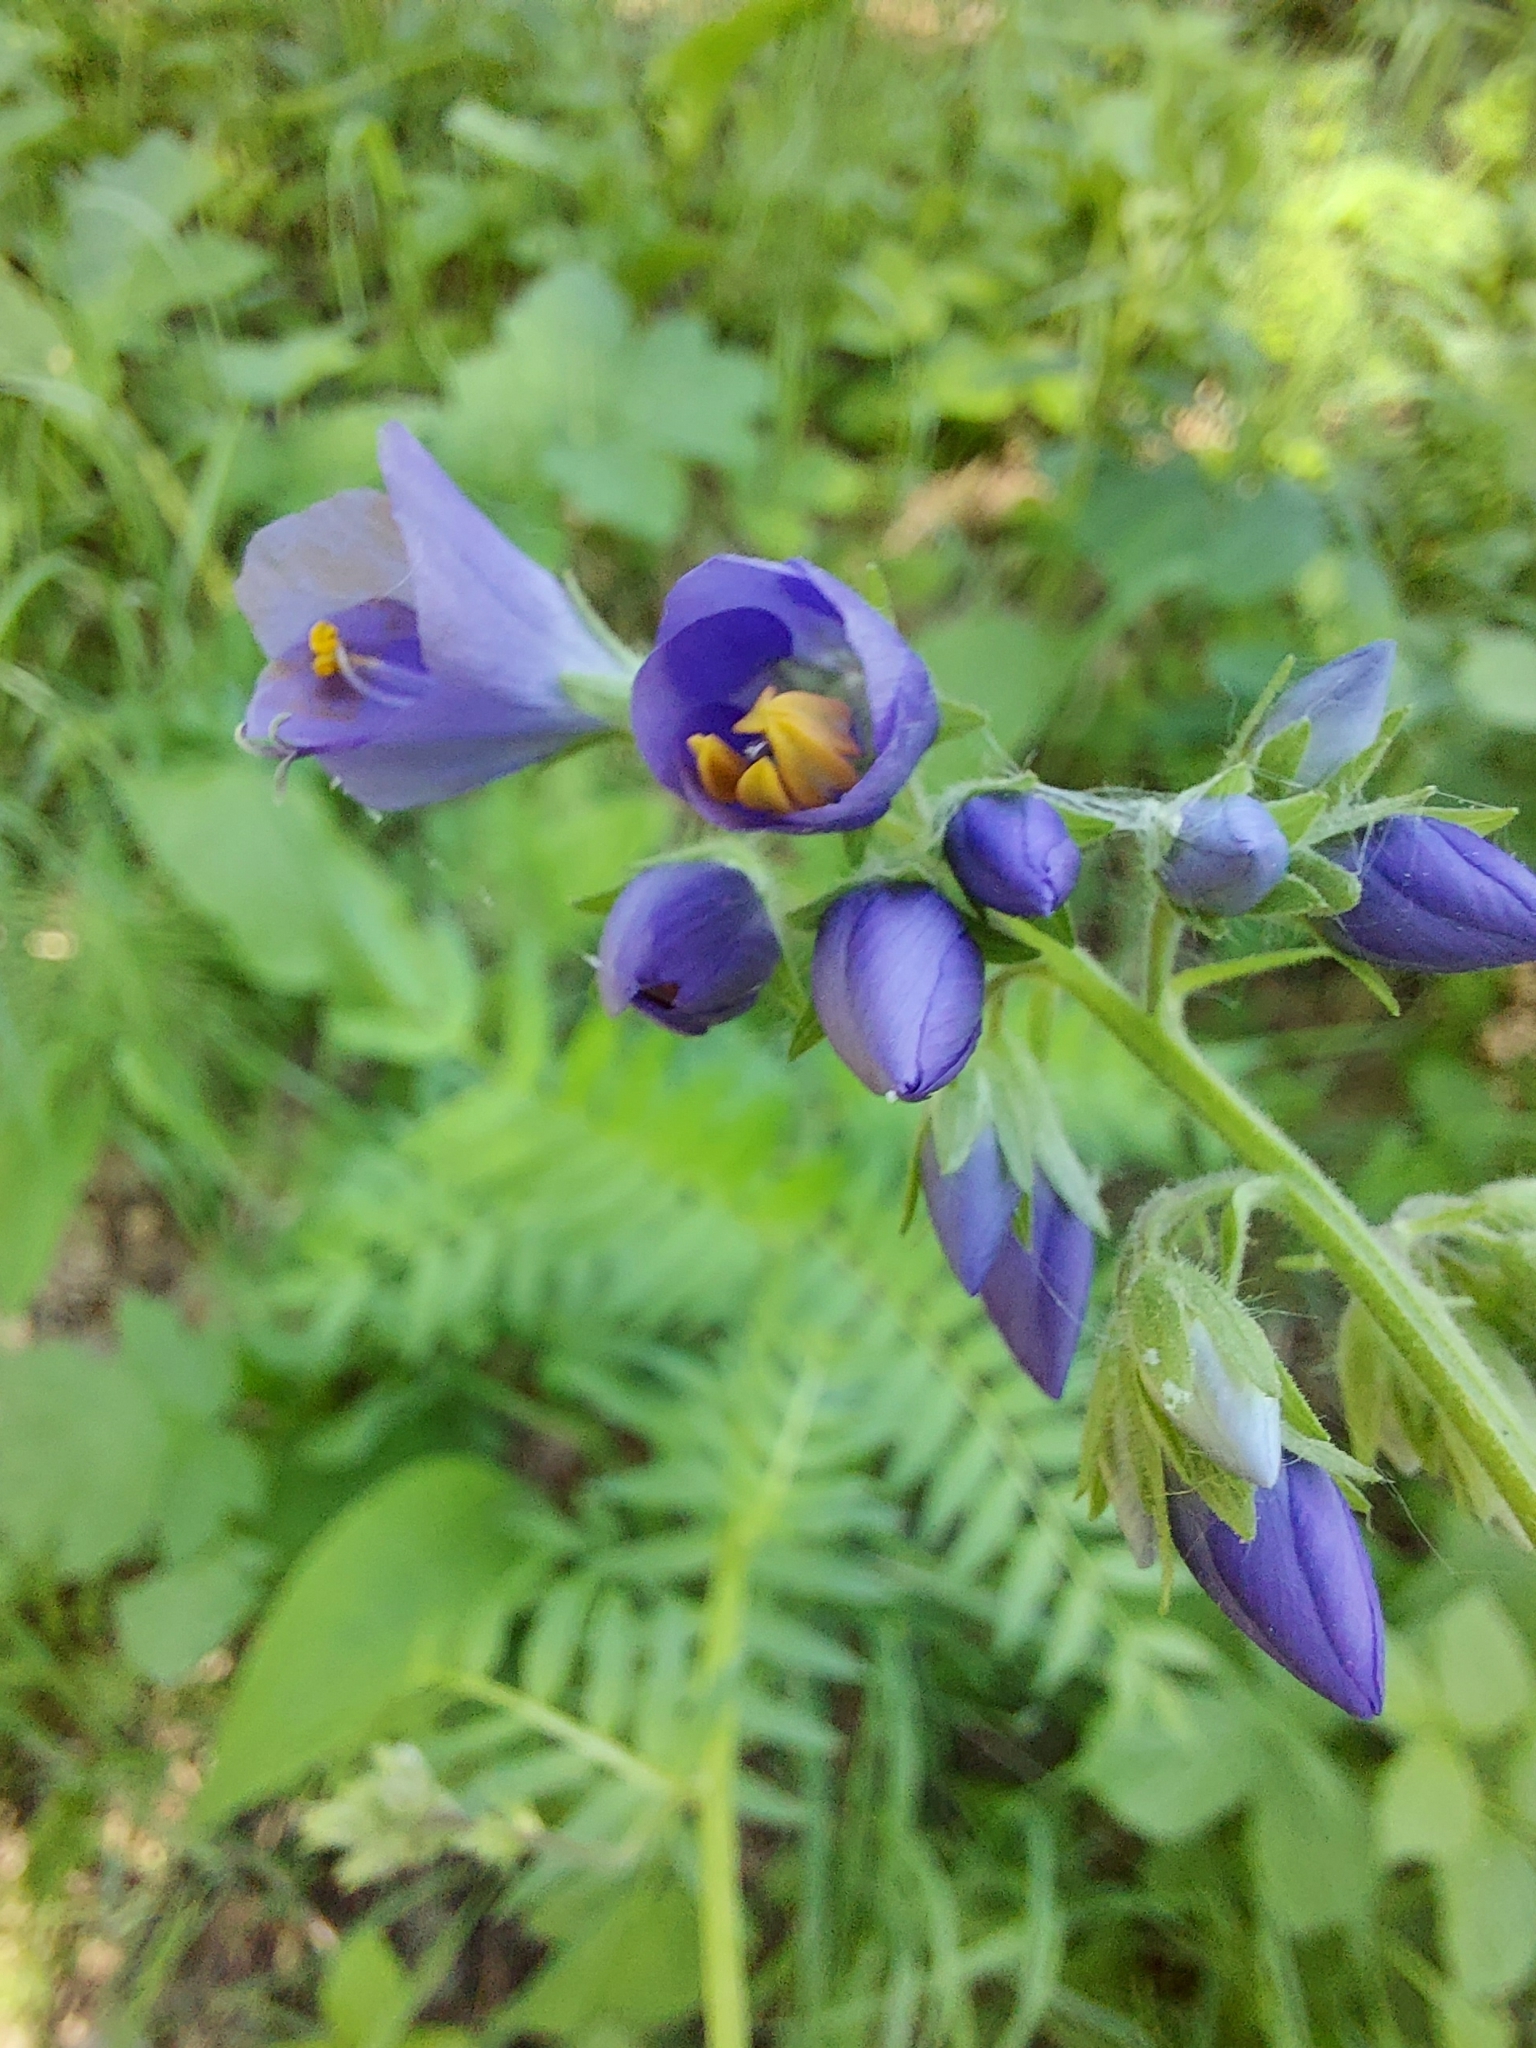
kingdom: Plantae
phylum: Tracheophyta
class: Magnoliopsida
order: Ericales
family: Polemoniaceae
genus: Polemonium
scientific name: Polemonium caeruleum
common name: Jacob's-ladder
